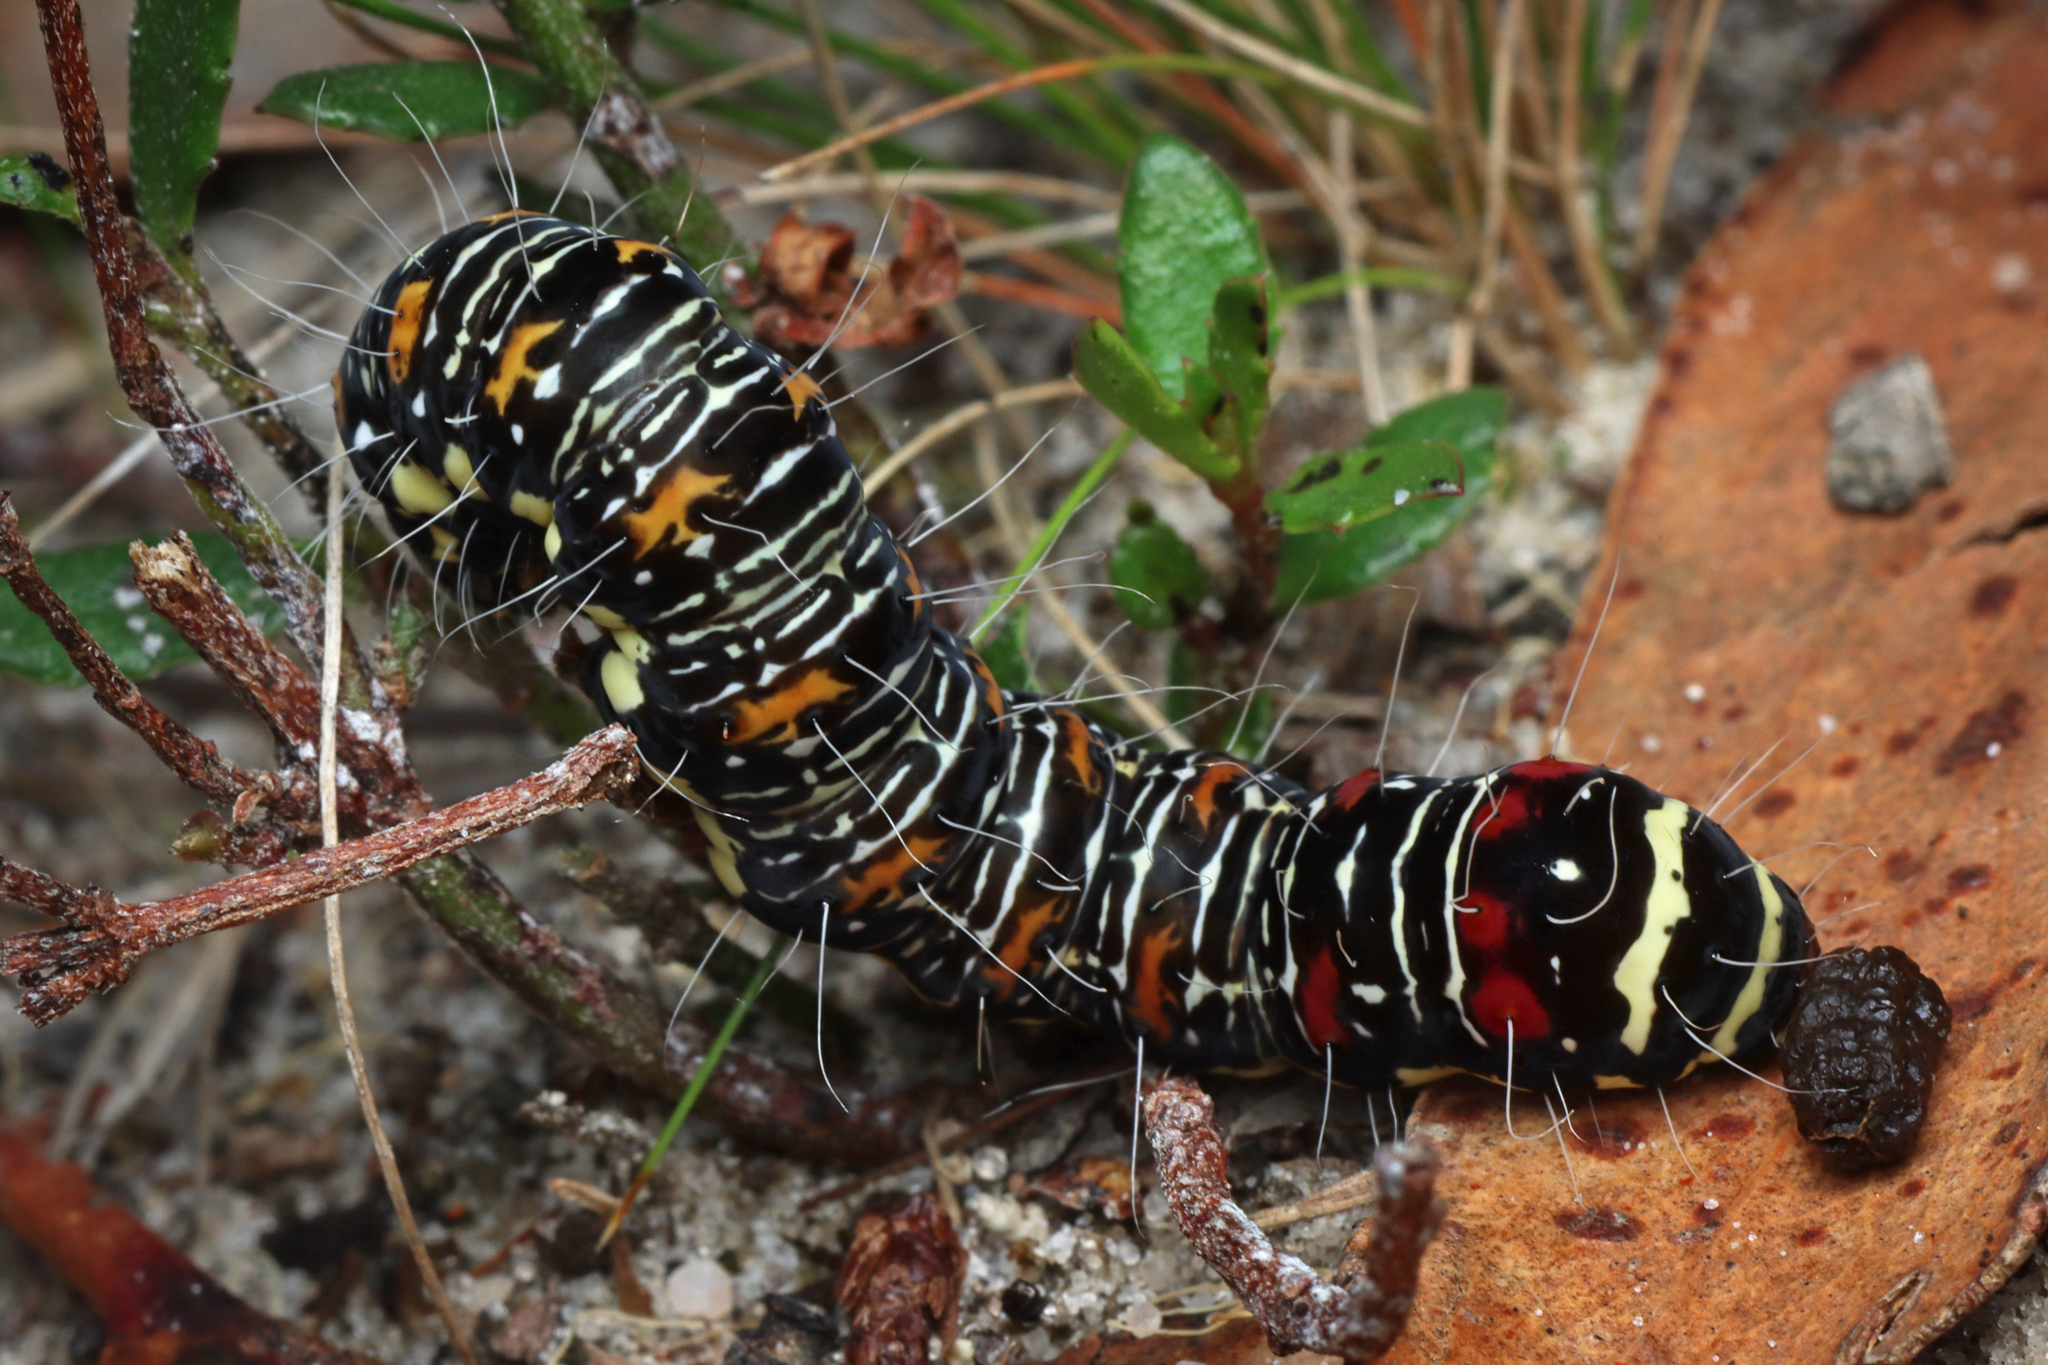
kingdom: Animalia
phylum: Arthropoda
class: Insecta
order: Lepidoptera
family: Noctuidae
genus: Eutrichopidia
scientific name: Eutrichopidia latinus
